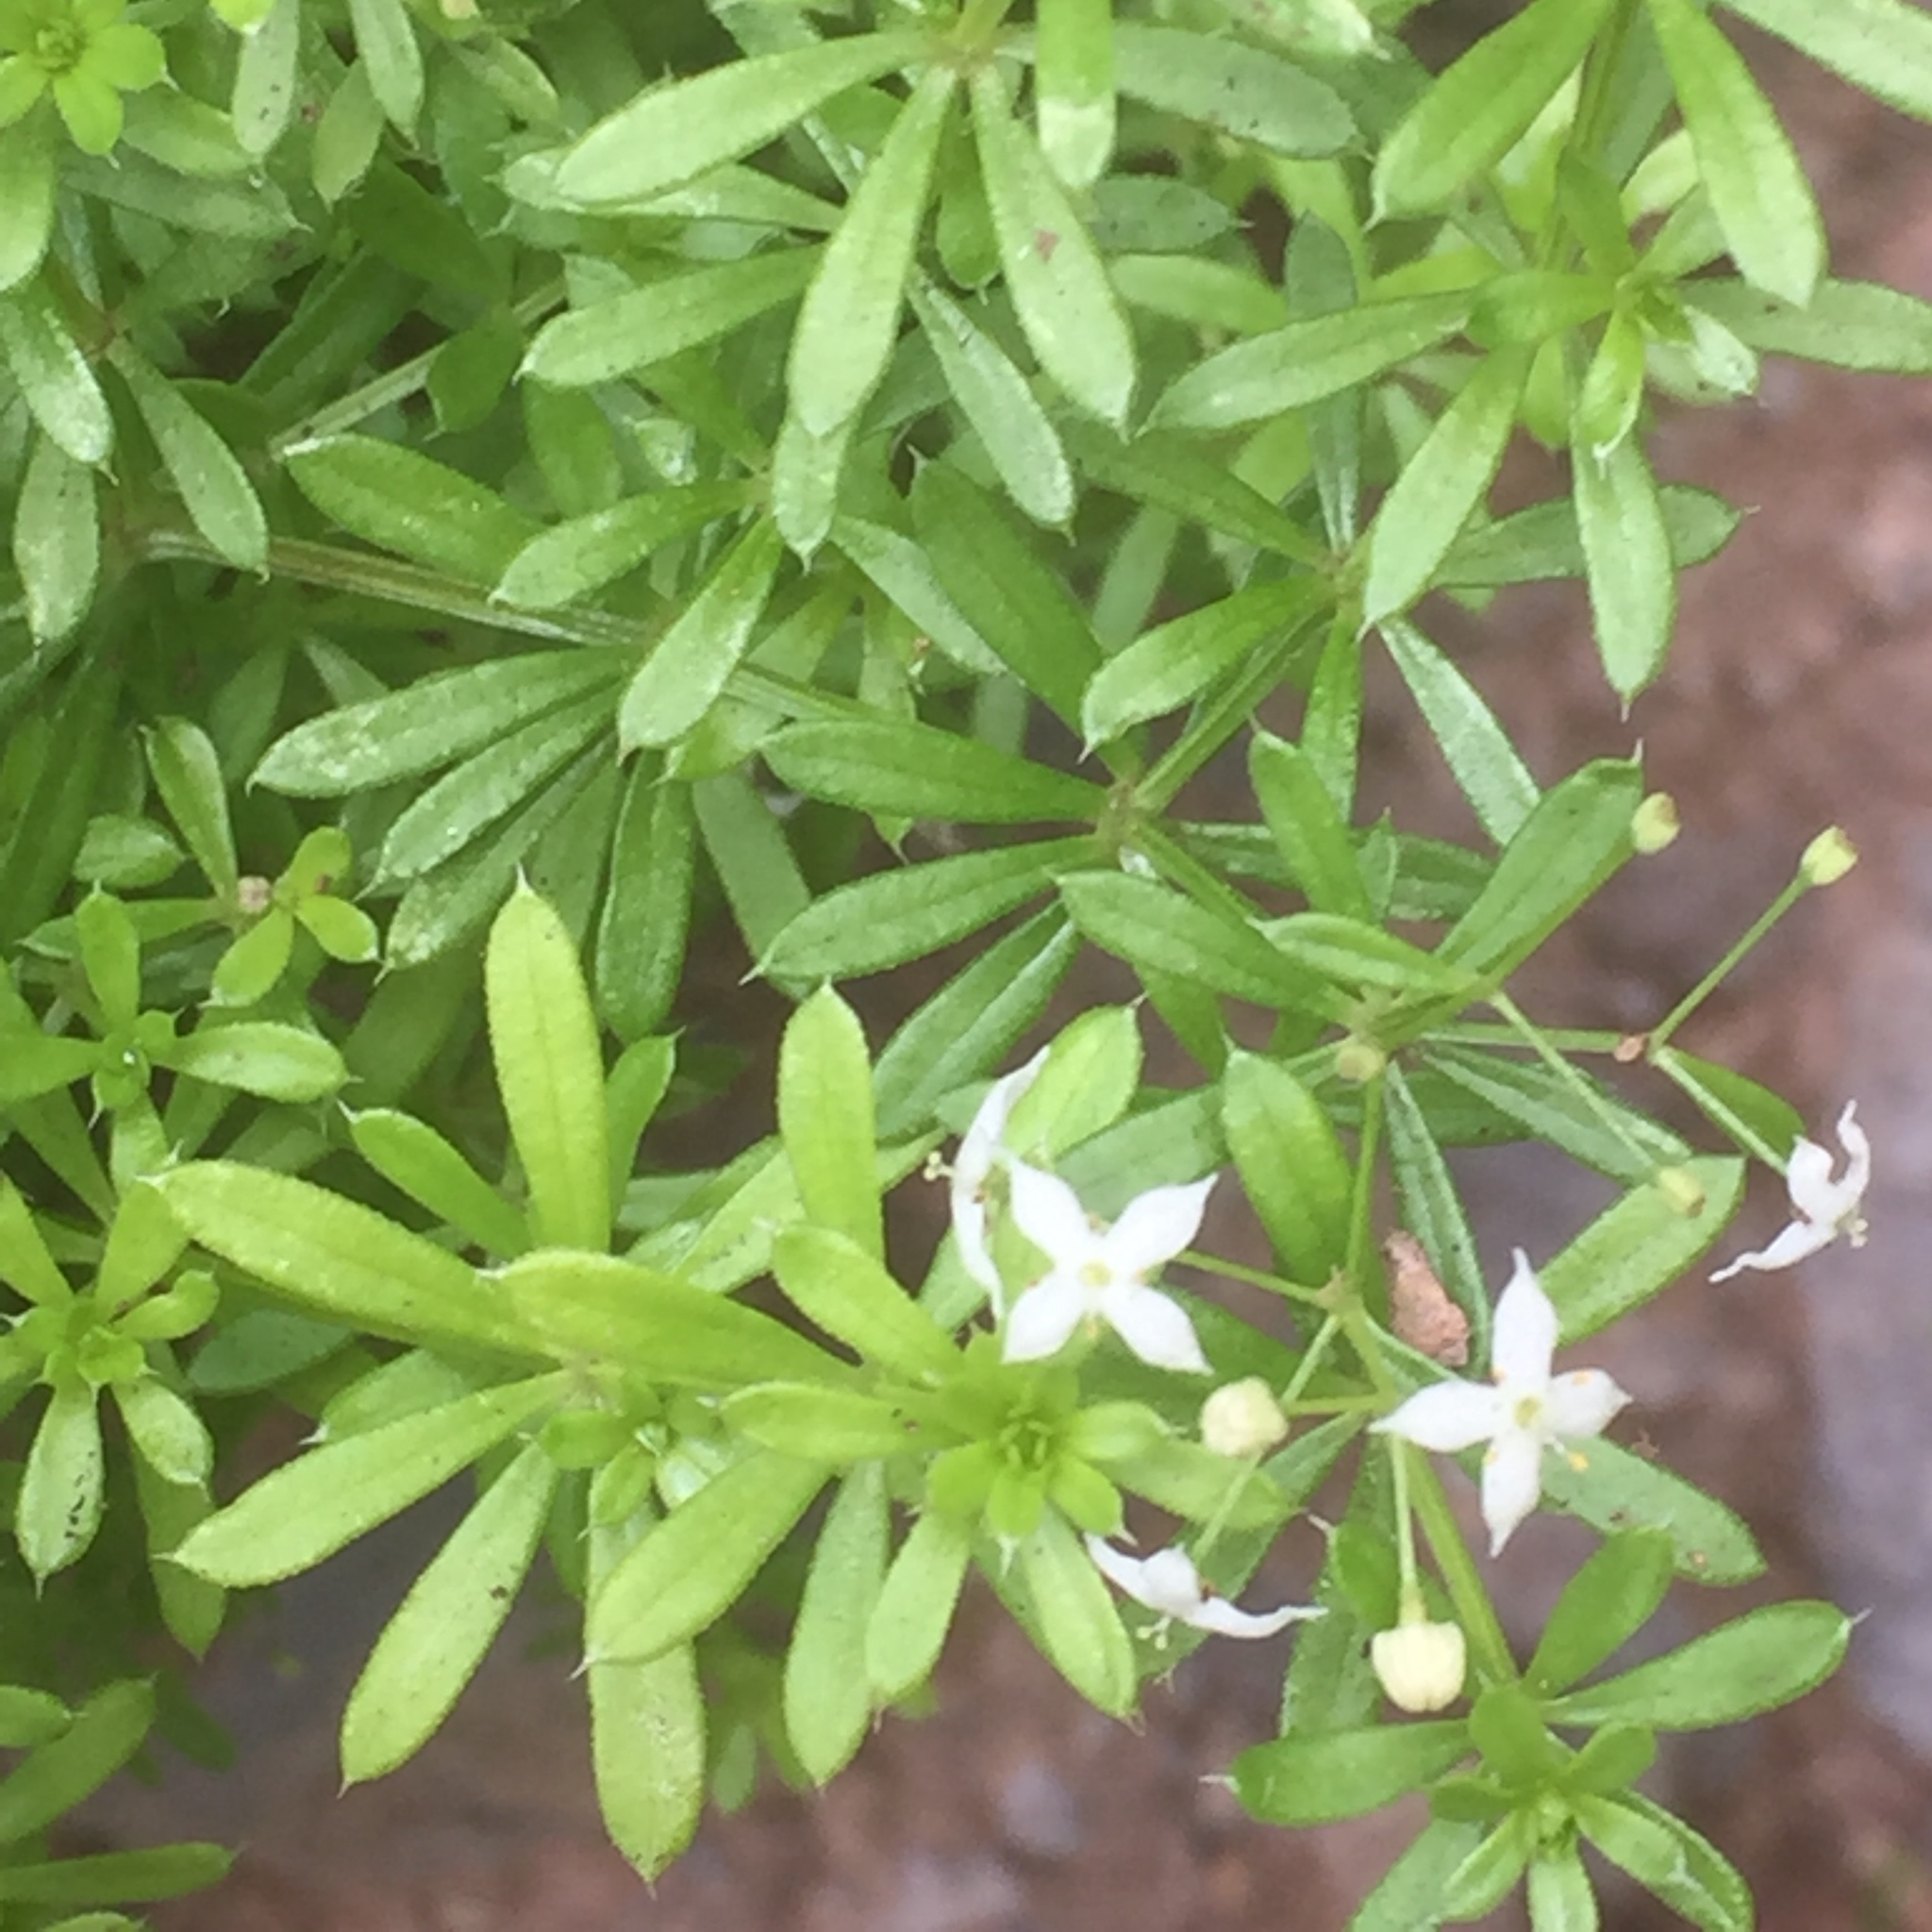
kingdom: Plantae
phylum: Tracheophyta
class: Magnoliopsida
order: Gentianales
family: Rubiaceae
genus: Galium
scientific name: Galium aparine
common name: Cleavers
